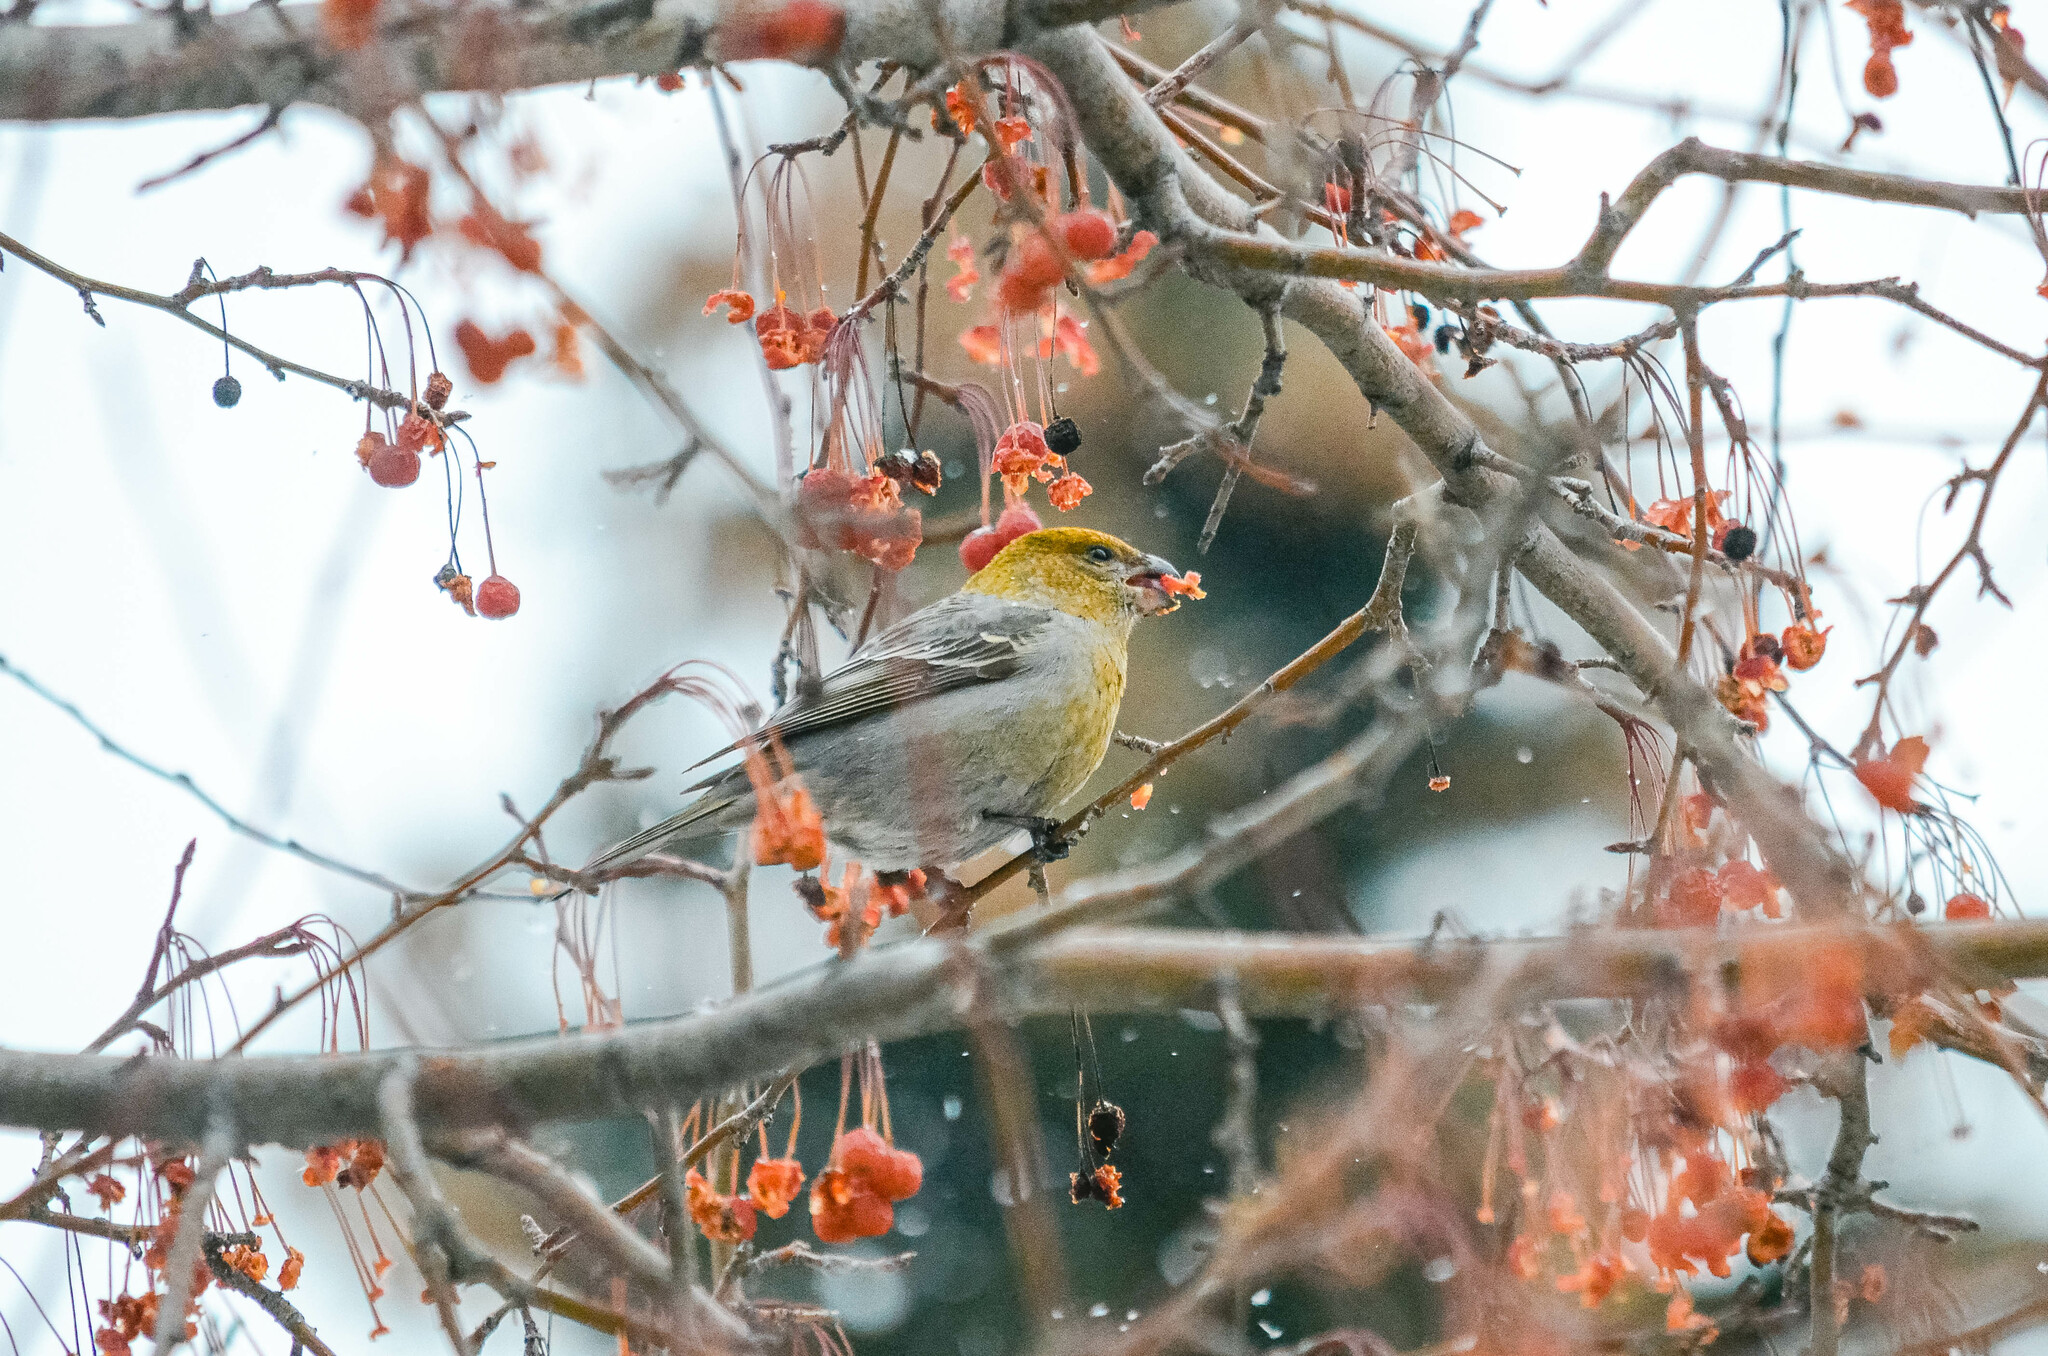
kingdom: Animalia
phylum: Chordata
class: Aves
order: Passeriformes
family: Fringillidae
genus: Pinicola
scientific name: Pinicola enucleator
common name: Pine grosbeak
